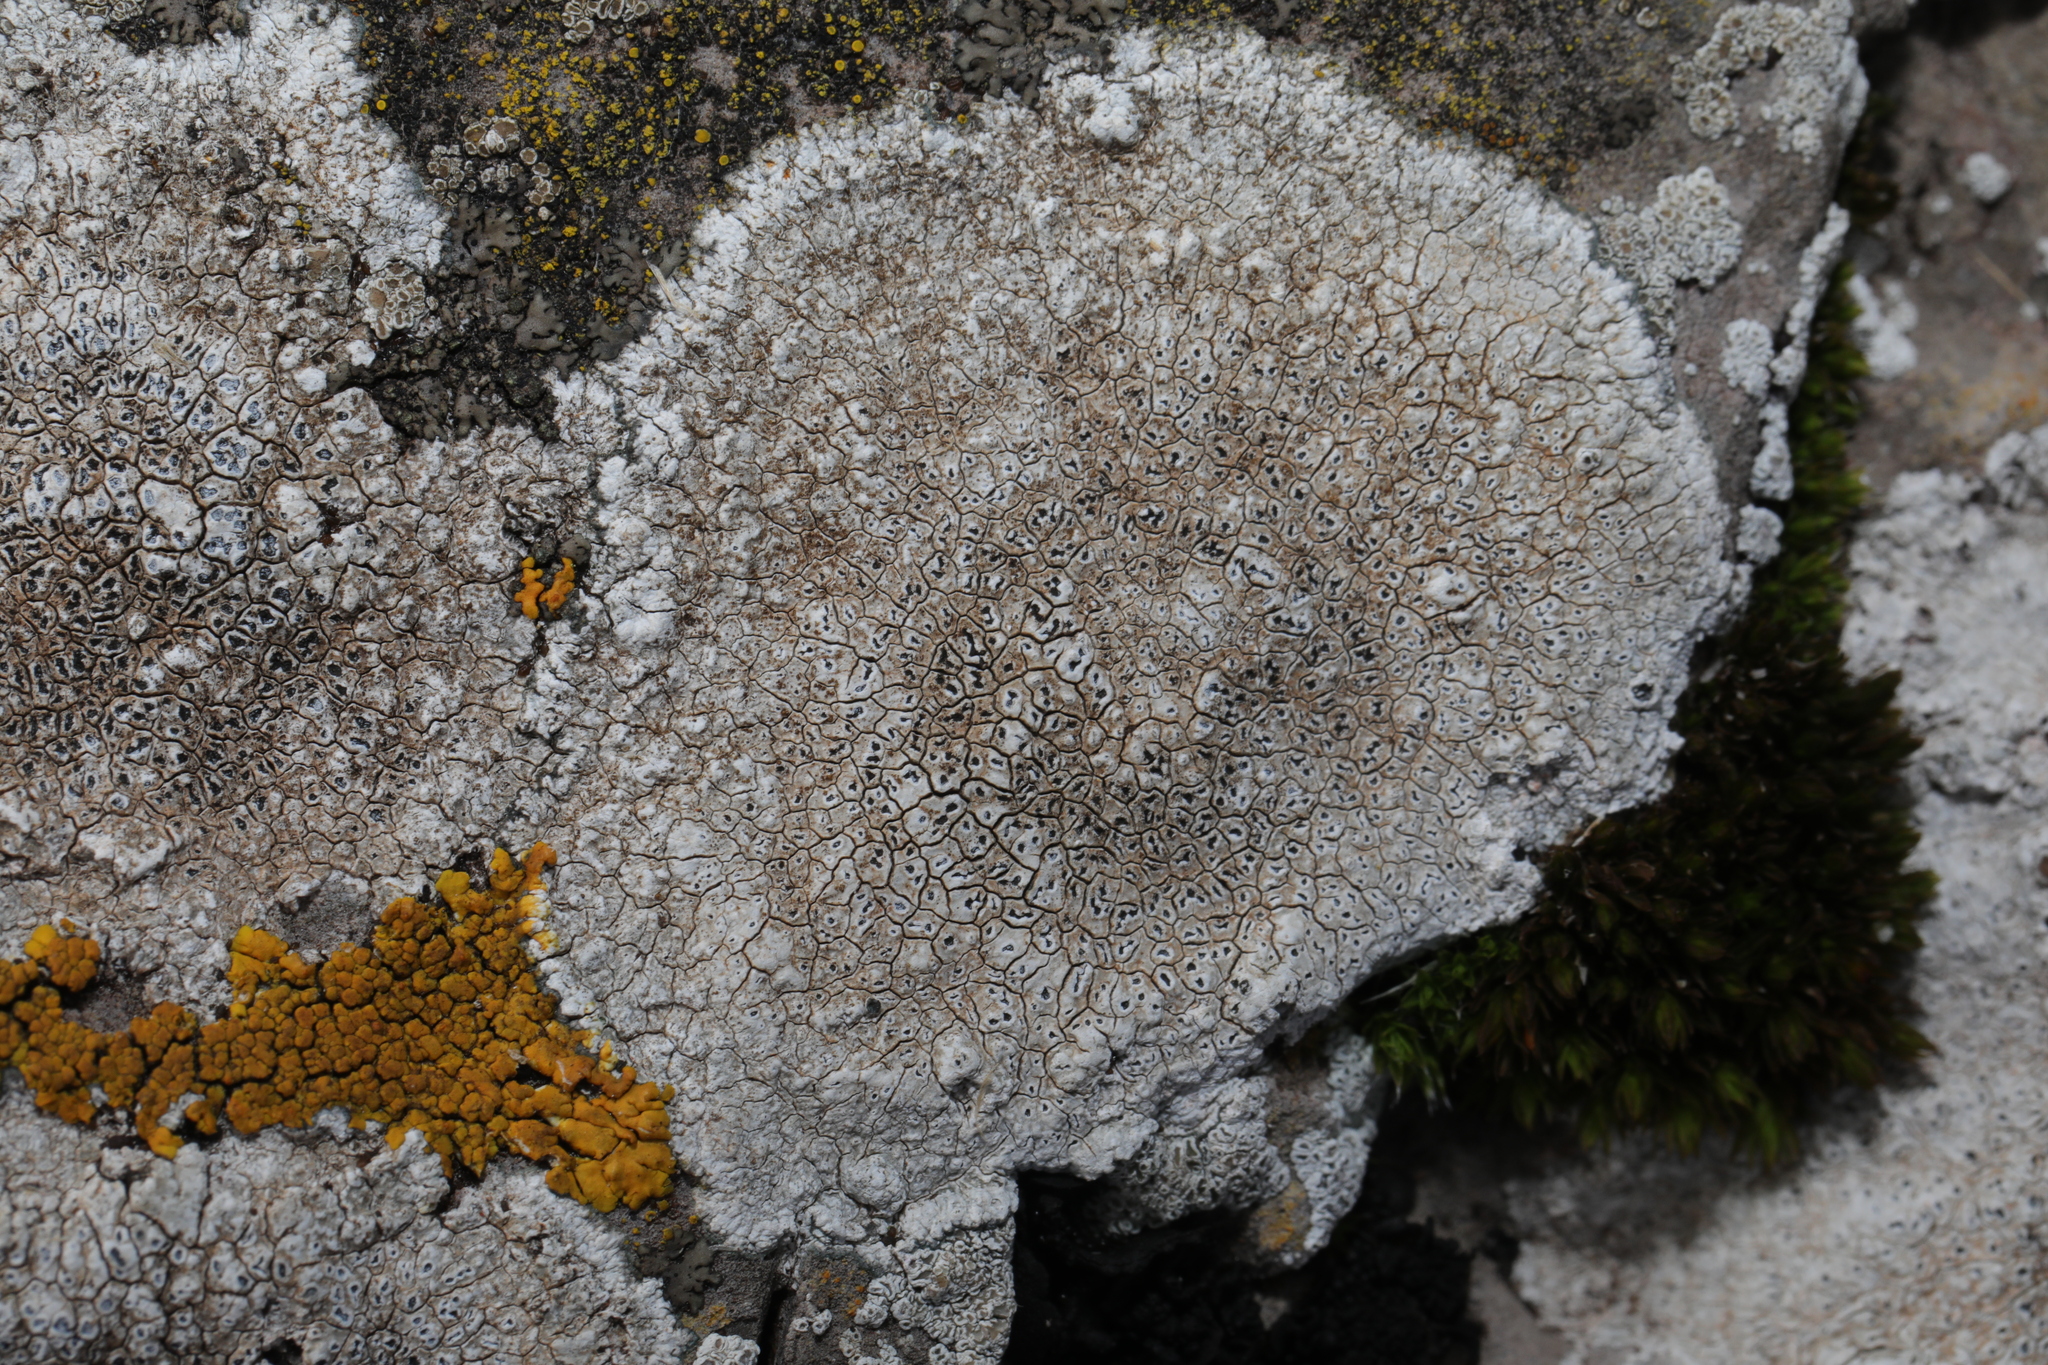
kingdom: Fungi
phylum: Ascomycota
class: Lecanoromycetes
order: Pertusariales
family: Megasporaceae
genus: Circinaria
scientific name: Circinaria calcarea
